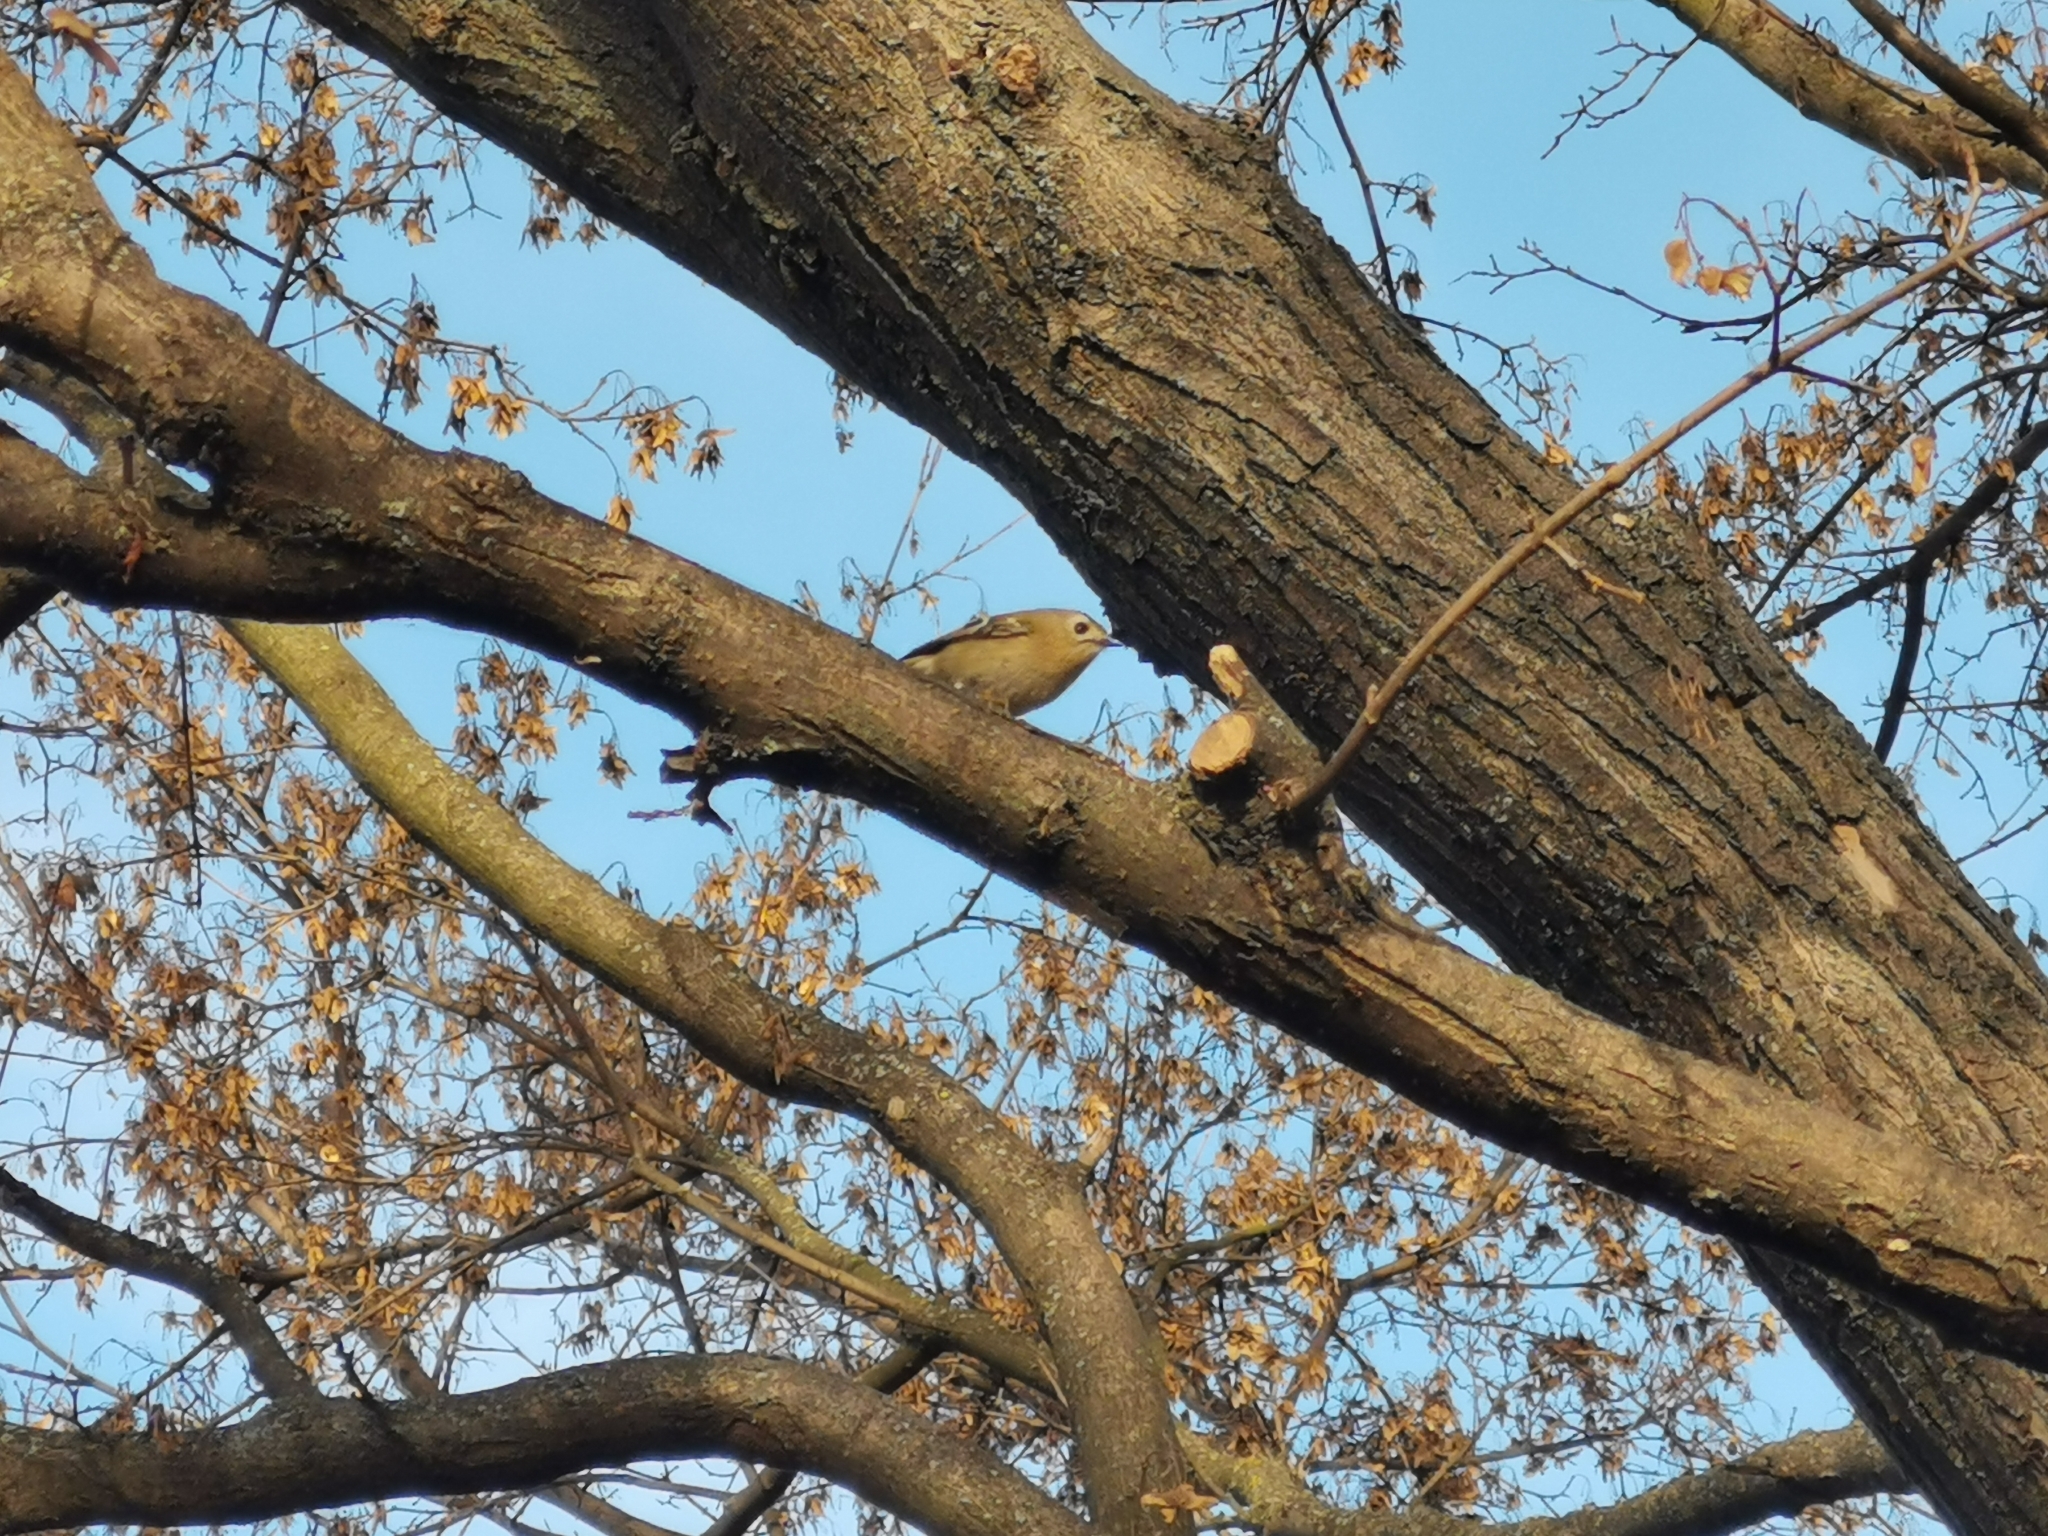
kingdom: Animalia
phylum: Chordata
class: Aves
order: Passeriformes
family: Regulidae
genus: Regulus
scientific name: Regulus regulus
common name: Goldcrest
